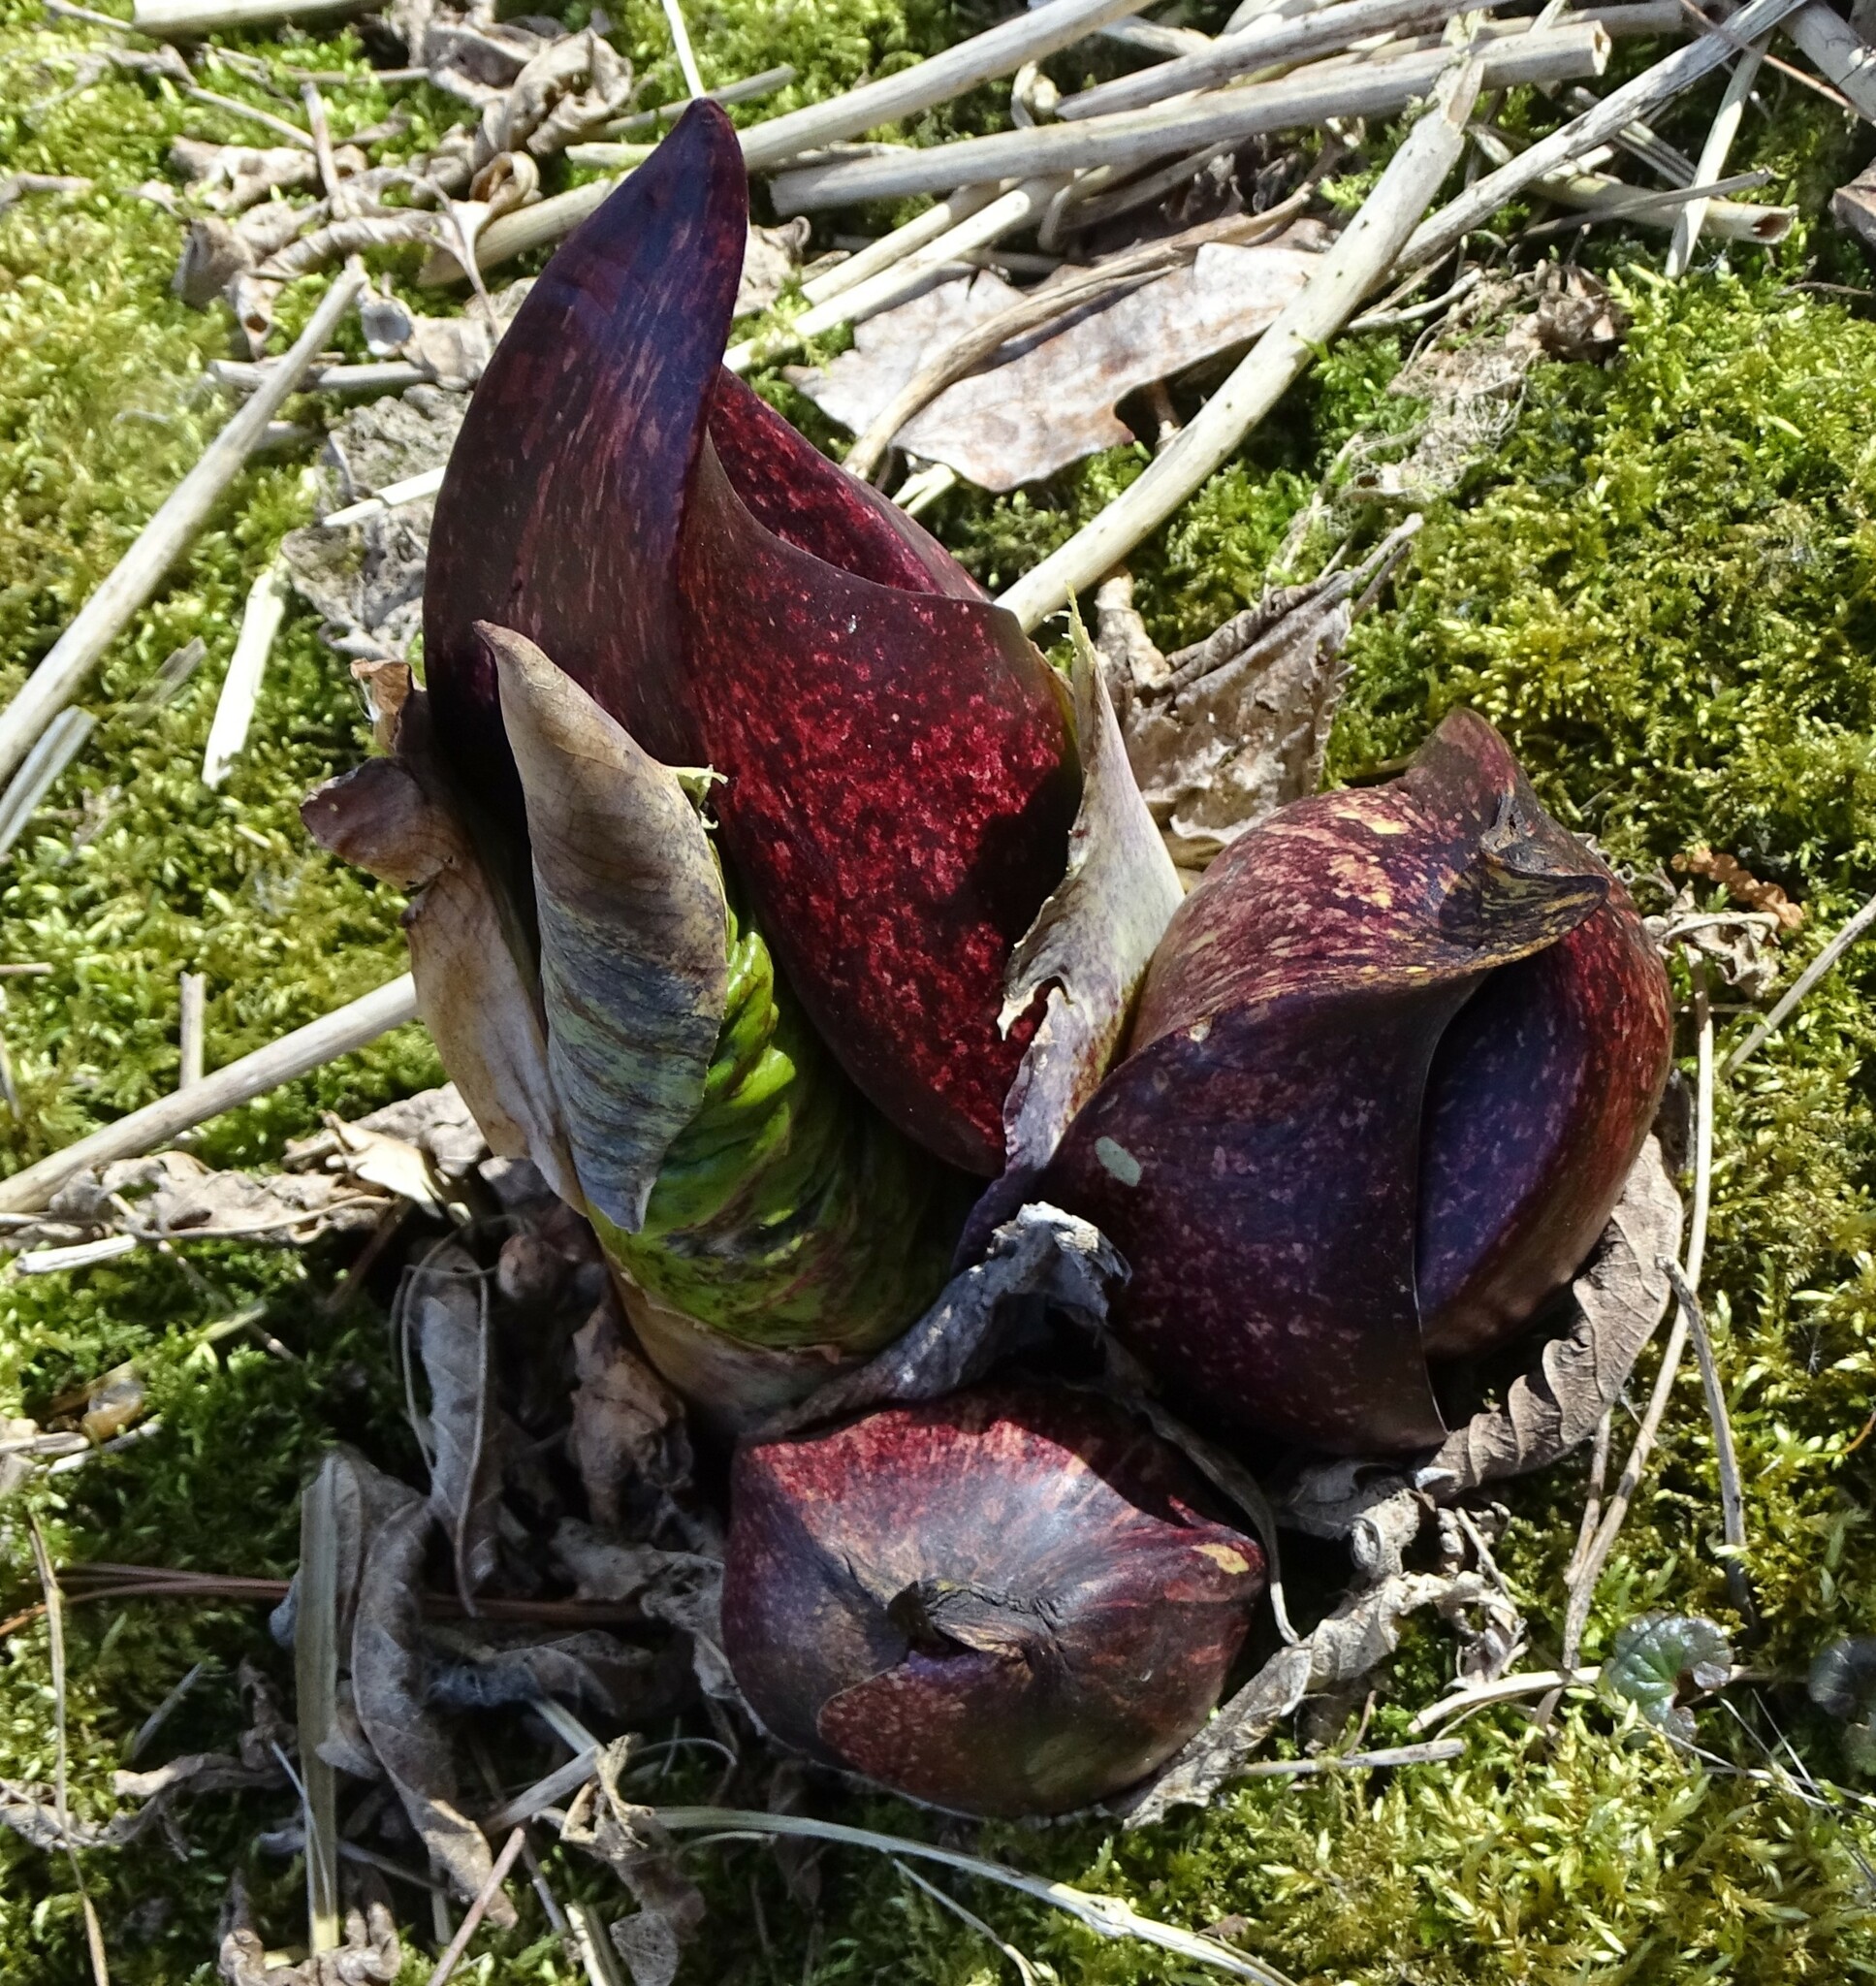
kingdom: Plantae
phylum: Tracheophyta
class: Liliopsida
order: Alismatales
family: Araceae
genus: Symplocarpus
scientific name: Symplocarpus foetidus
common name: Eastern skunk cabbage
